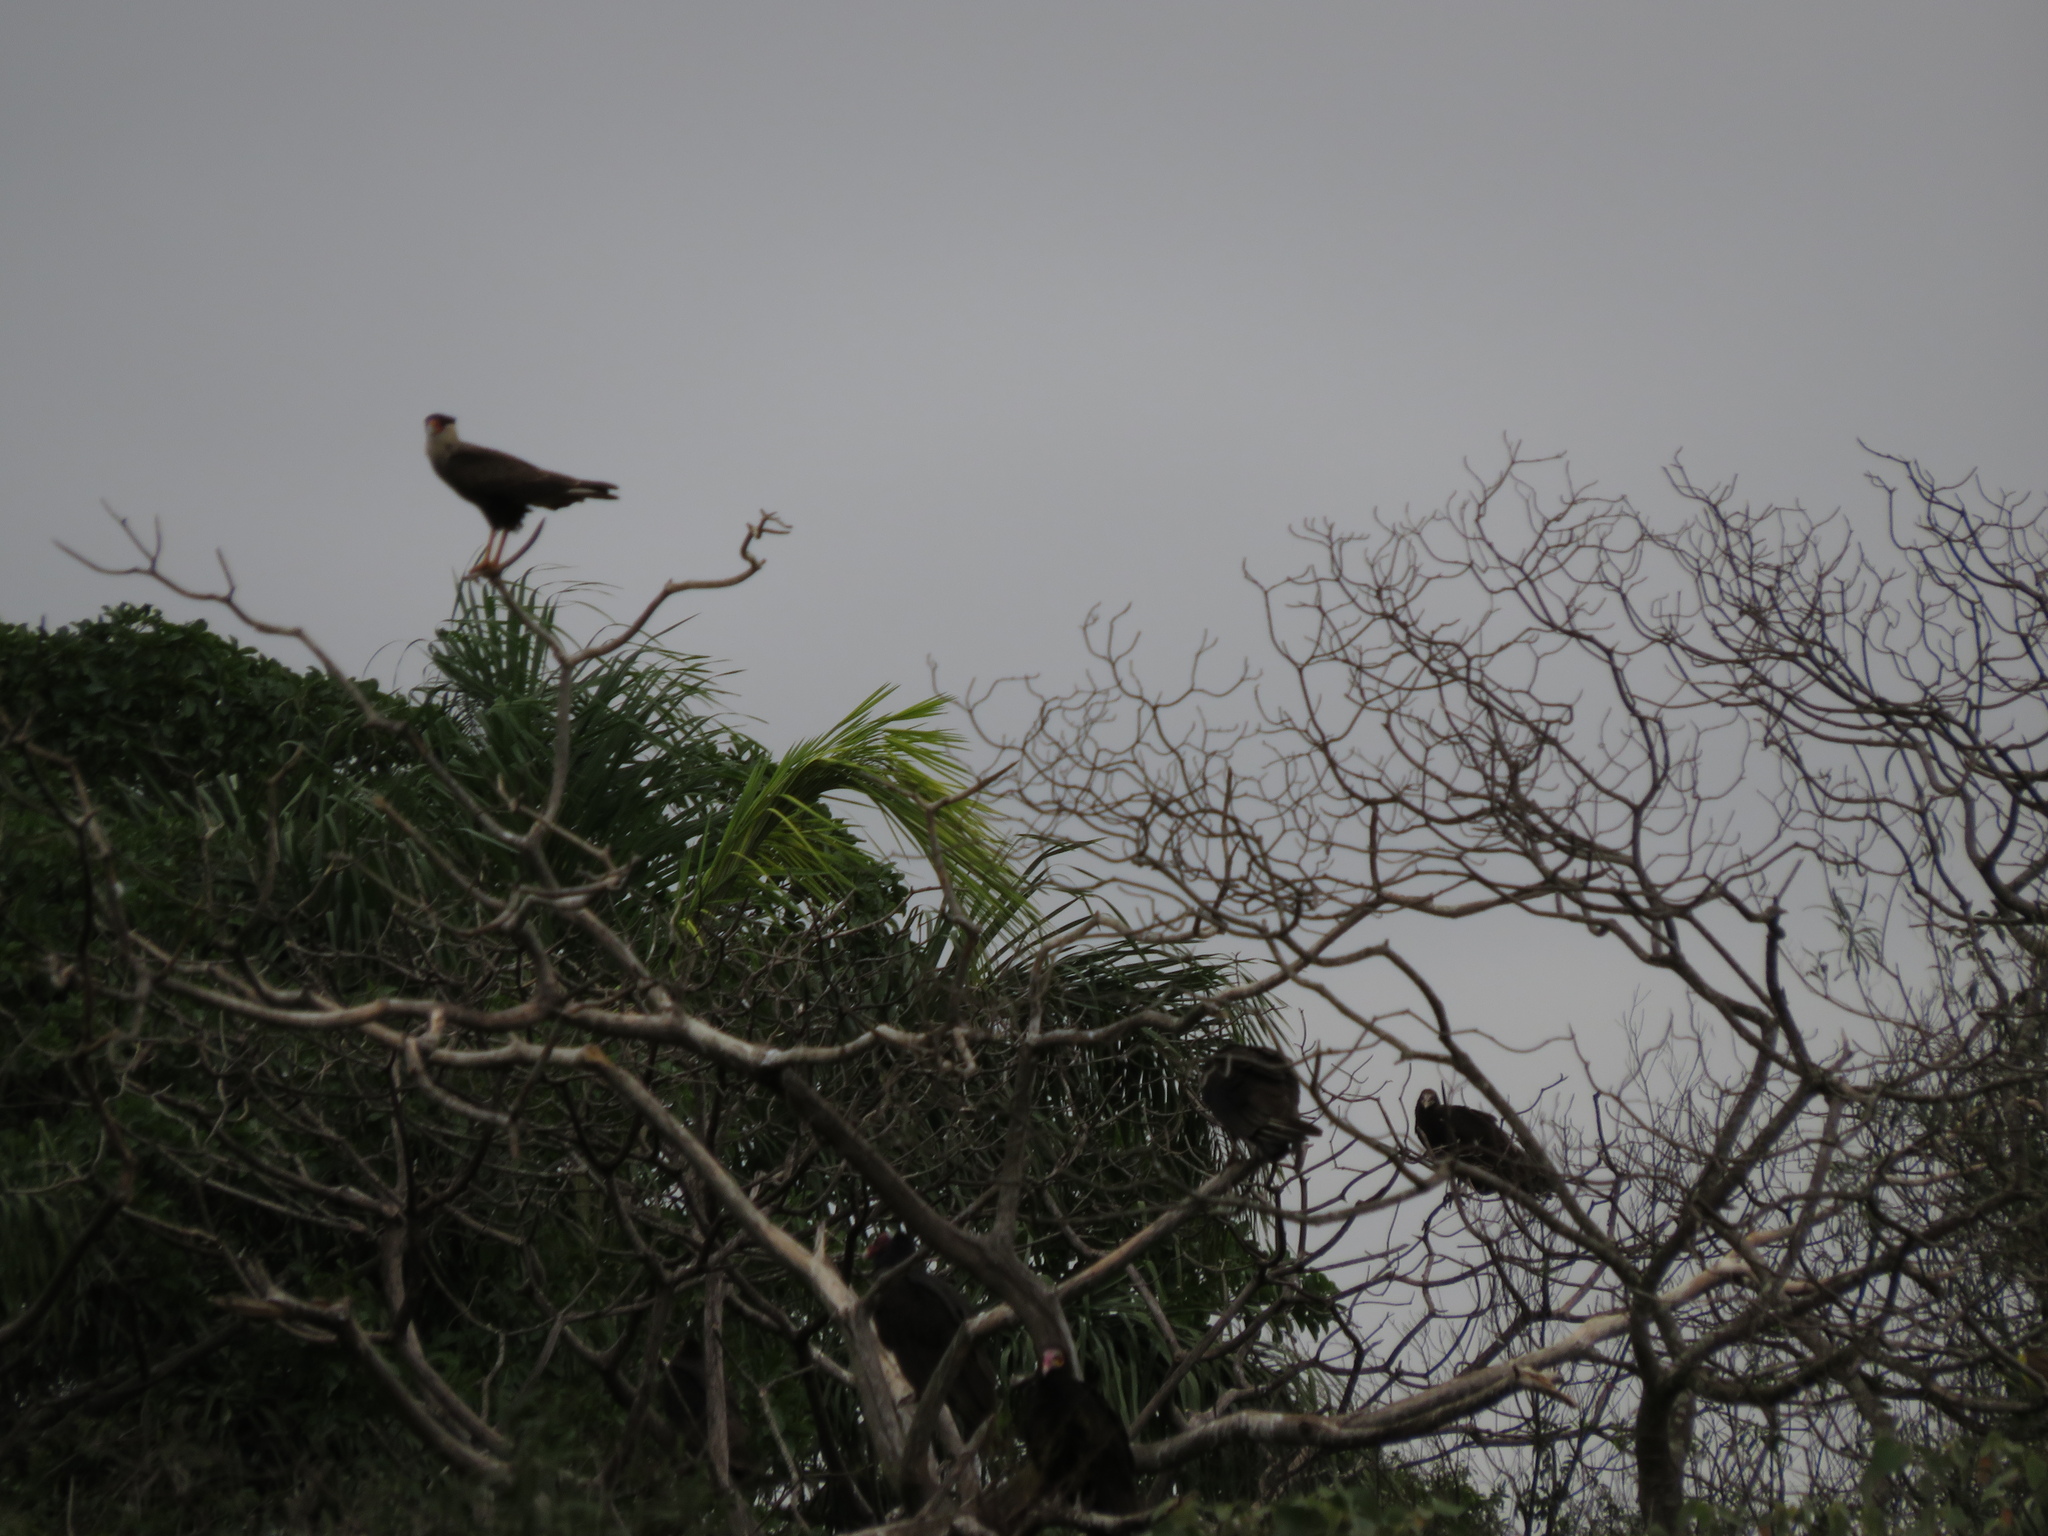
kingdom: Animalia
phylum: Chordata
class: Aves
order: Accipitriformes
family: Cathartidae
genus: Cathartes
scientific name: Cathartes burrovianus
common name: Lesser yellow-headed vulture
